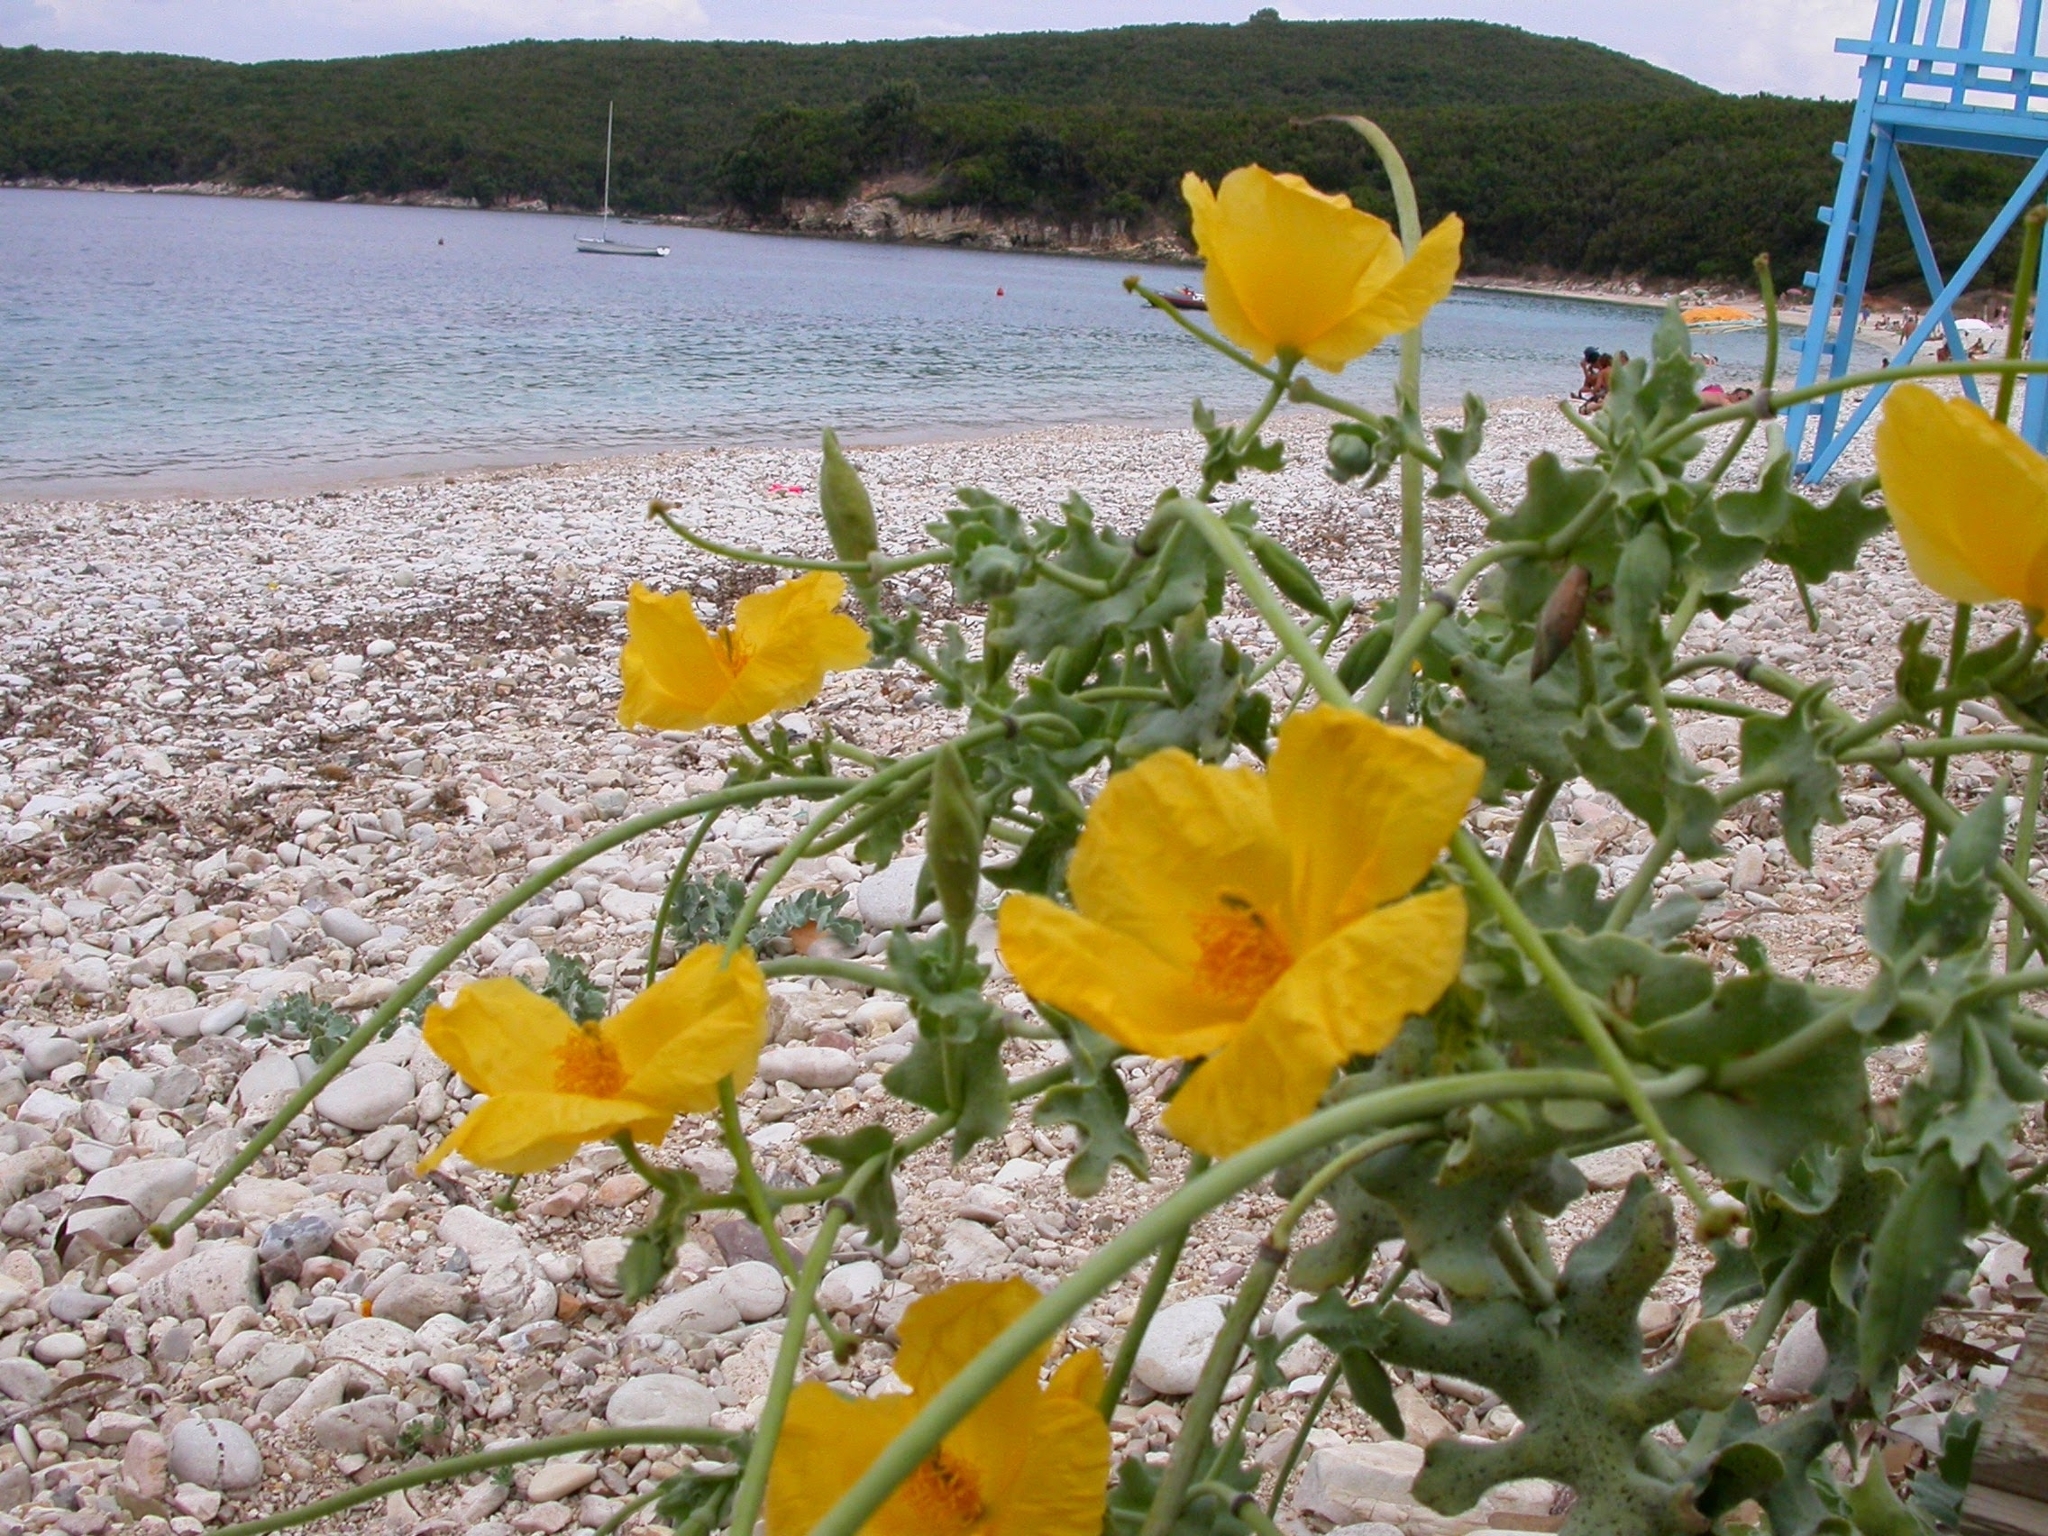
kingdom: Plantae
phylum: Tracheophyta
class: Magnoliopsida
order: Ranunculales
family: Papaveraceae
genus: Glaucium
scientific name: Glaucium flavum
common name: Yellow horned-poppy
